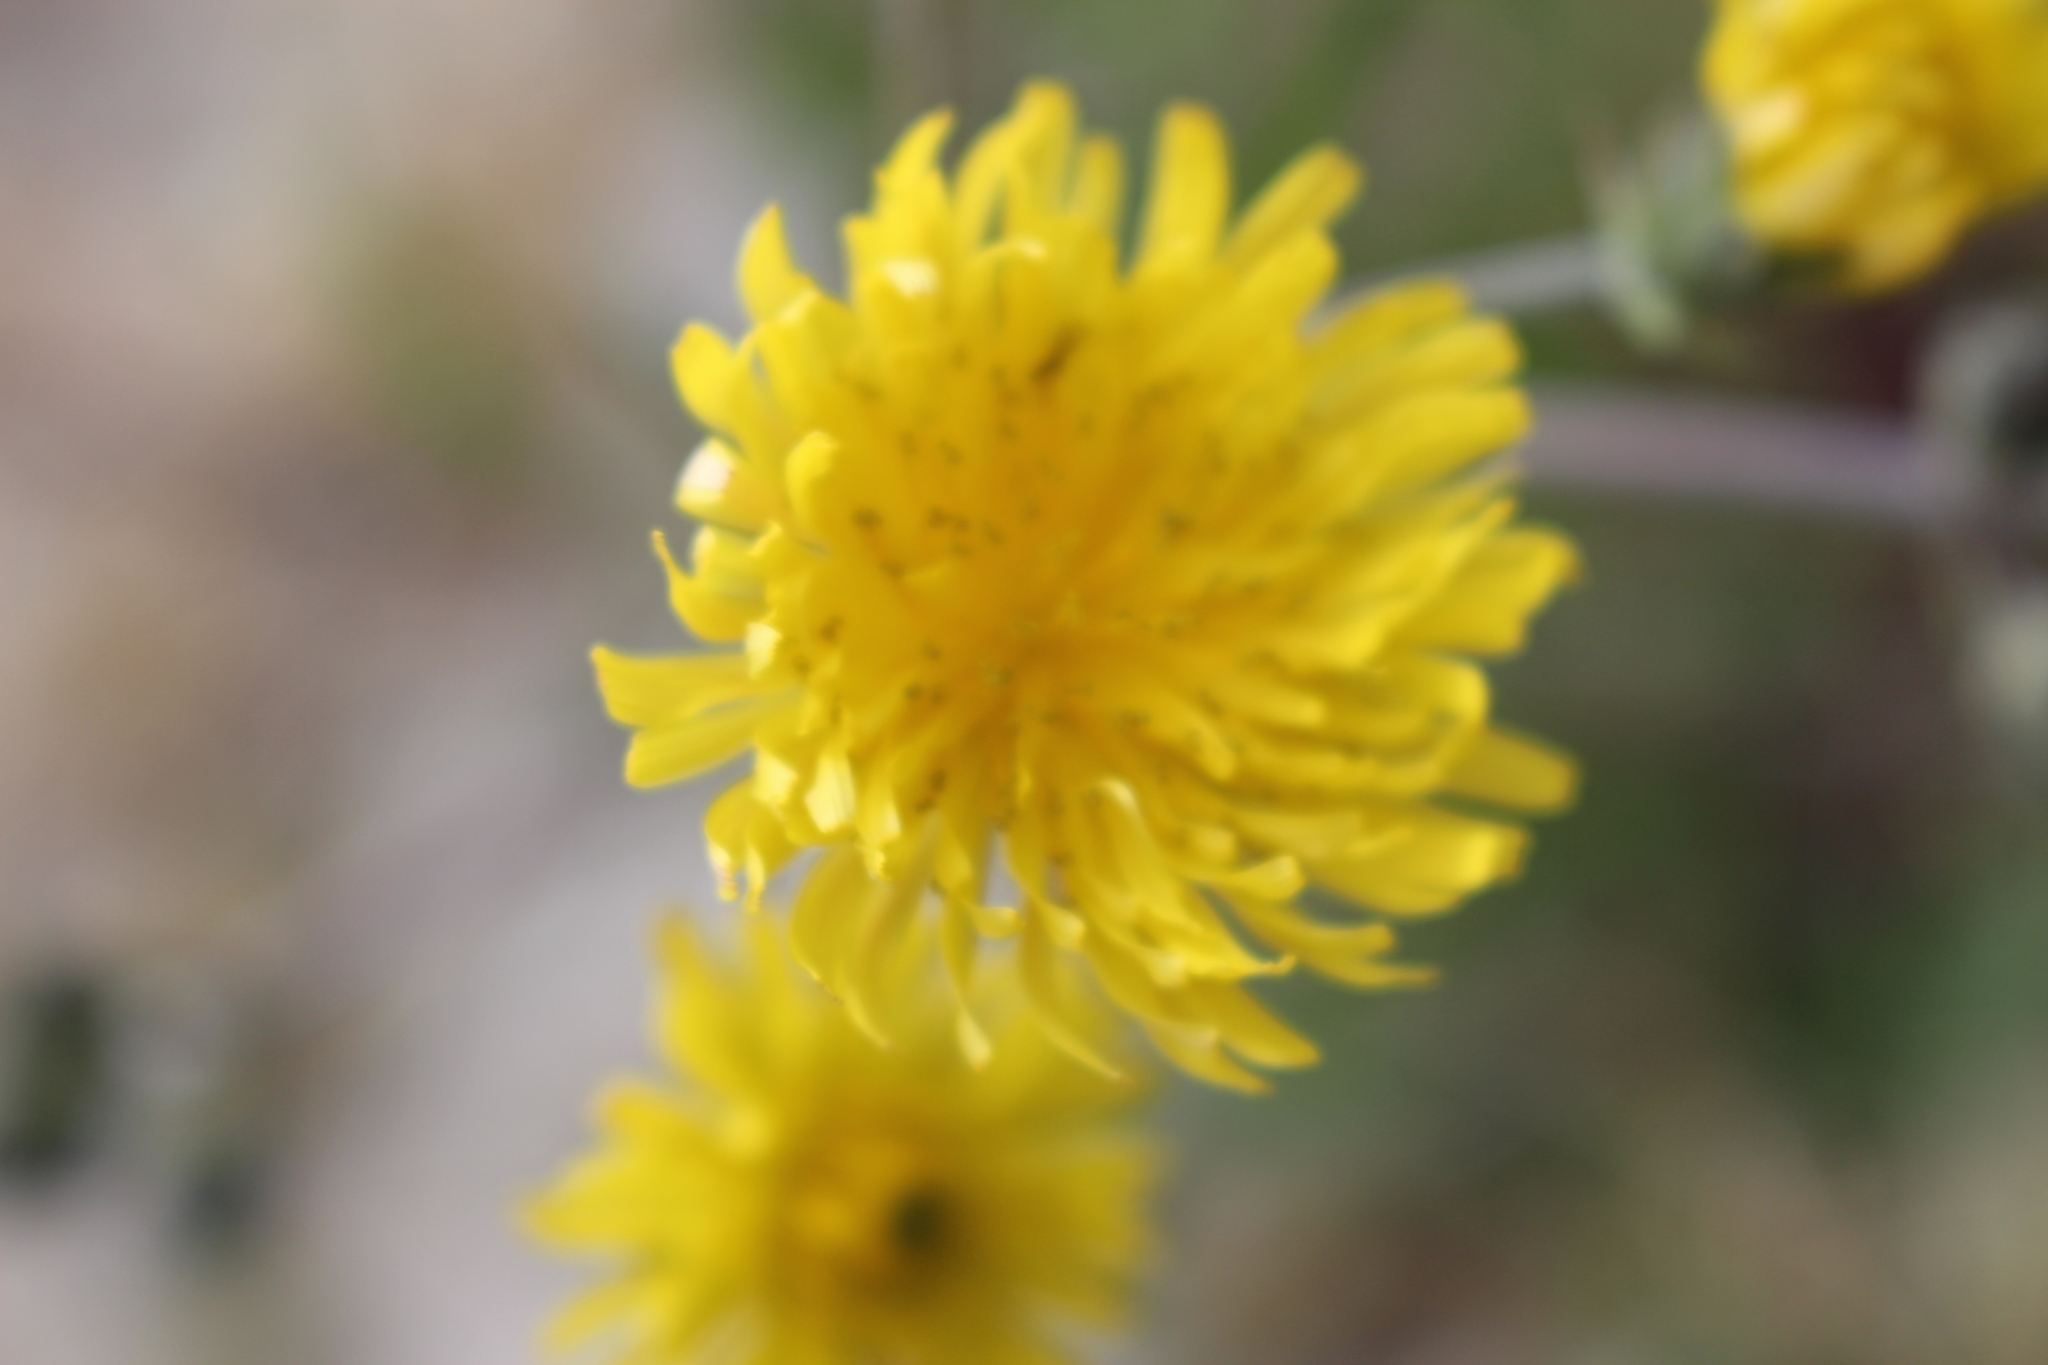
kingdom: Plantae
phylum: Tracheophyta
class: Magnoliopsida
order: Asterales
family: Asteraceae
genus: Crepis
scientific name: Crepis vesicaria
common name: Beaked hawksbeard
